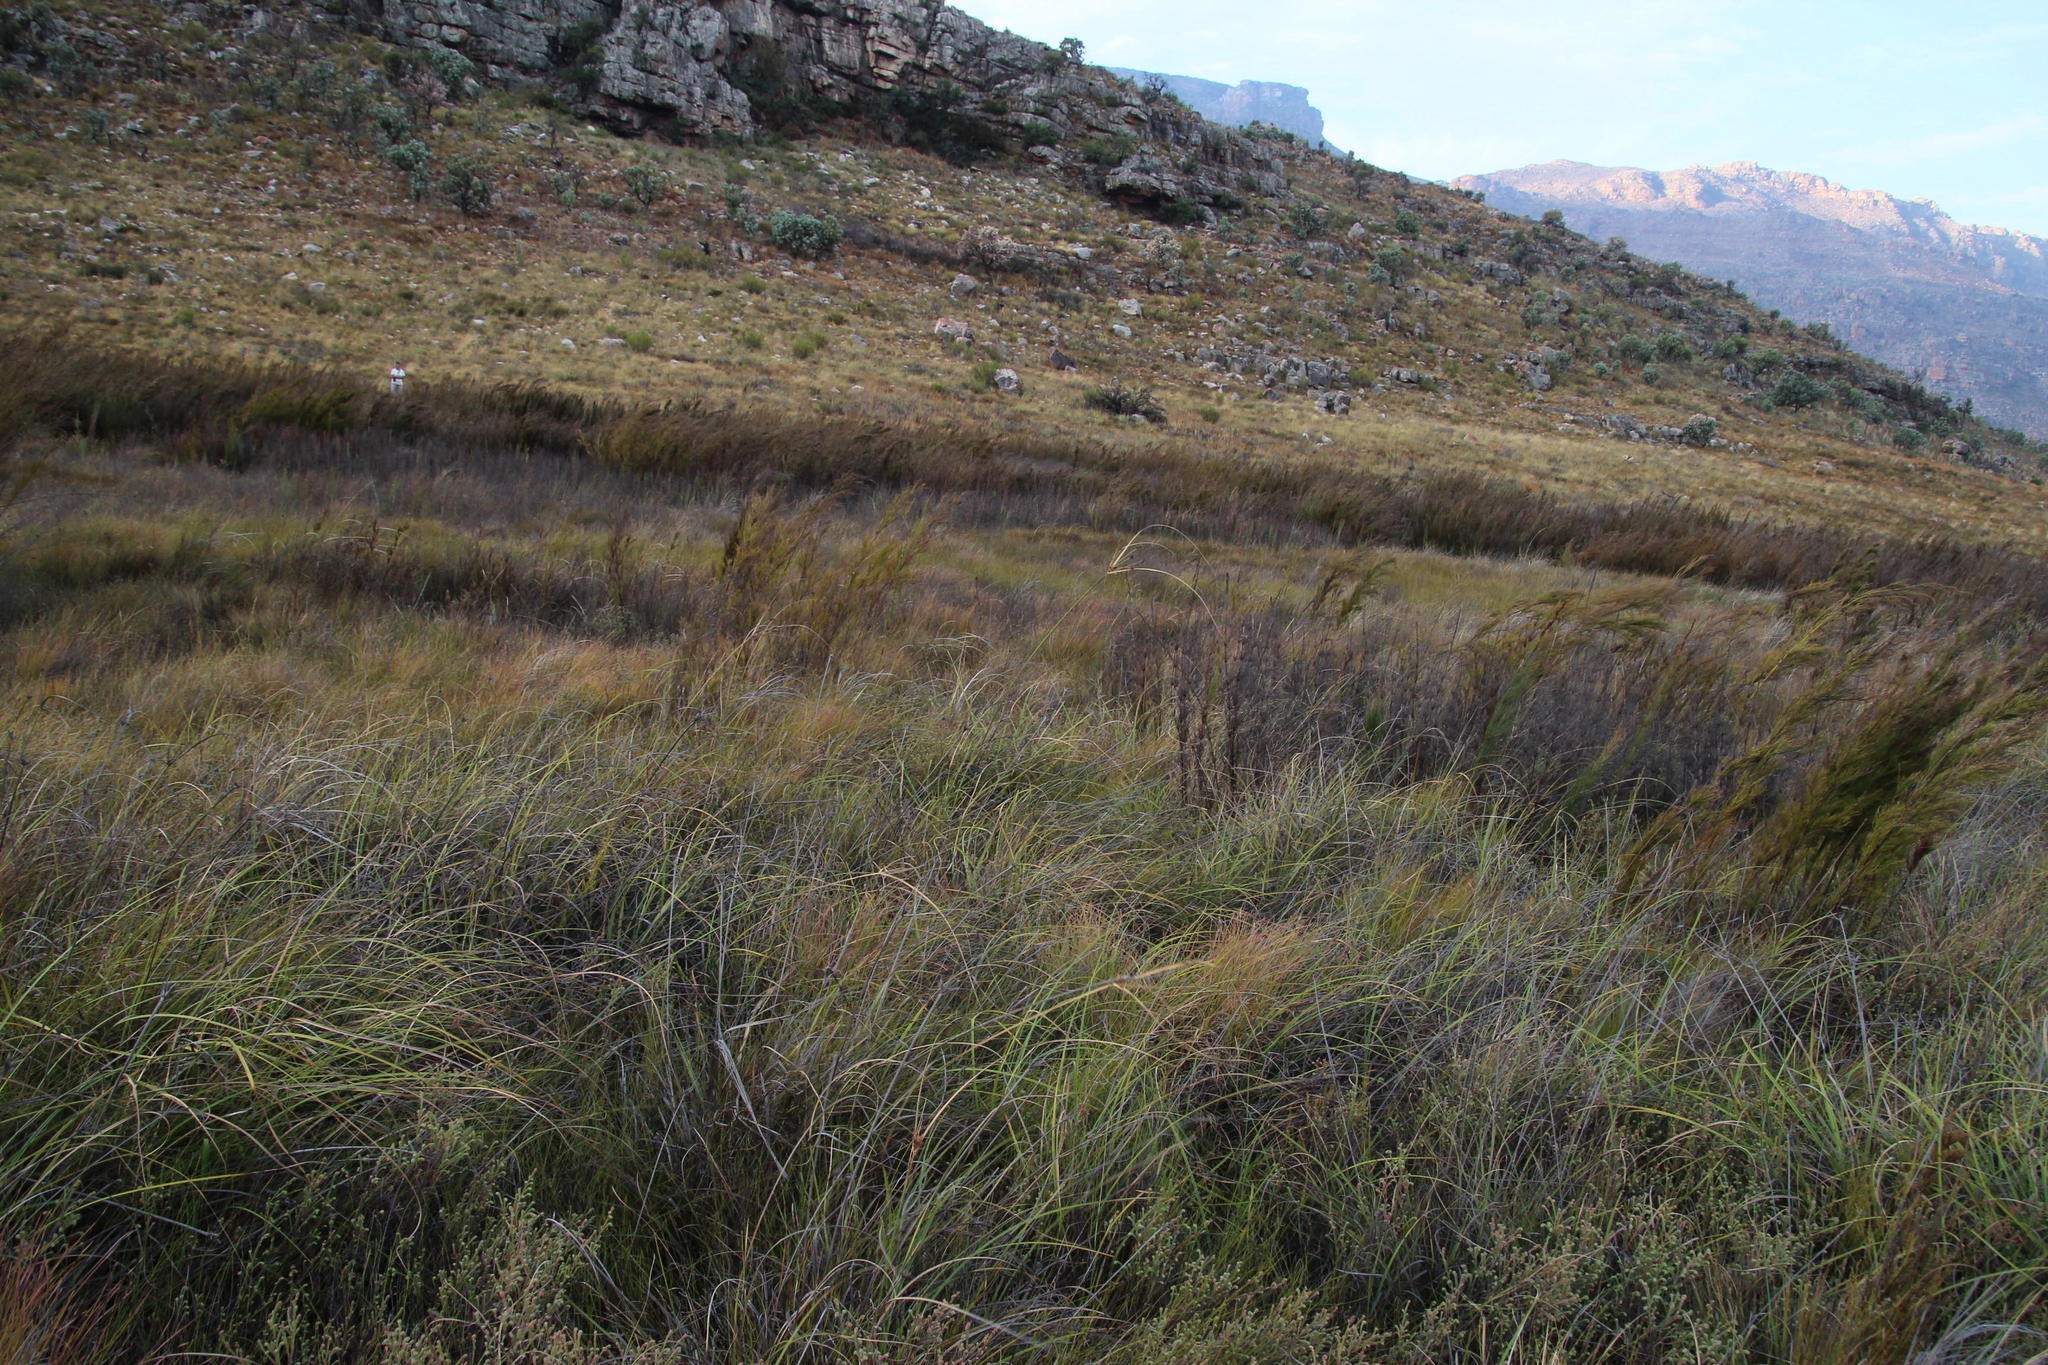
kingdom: Plantae
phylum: Tracheophyta
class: Liliopsida
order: Poales
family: Cyperaceae
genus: Cyperus
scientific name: Cyperus thunbergii
